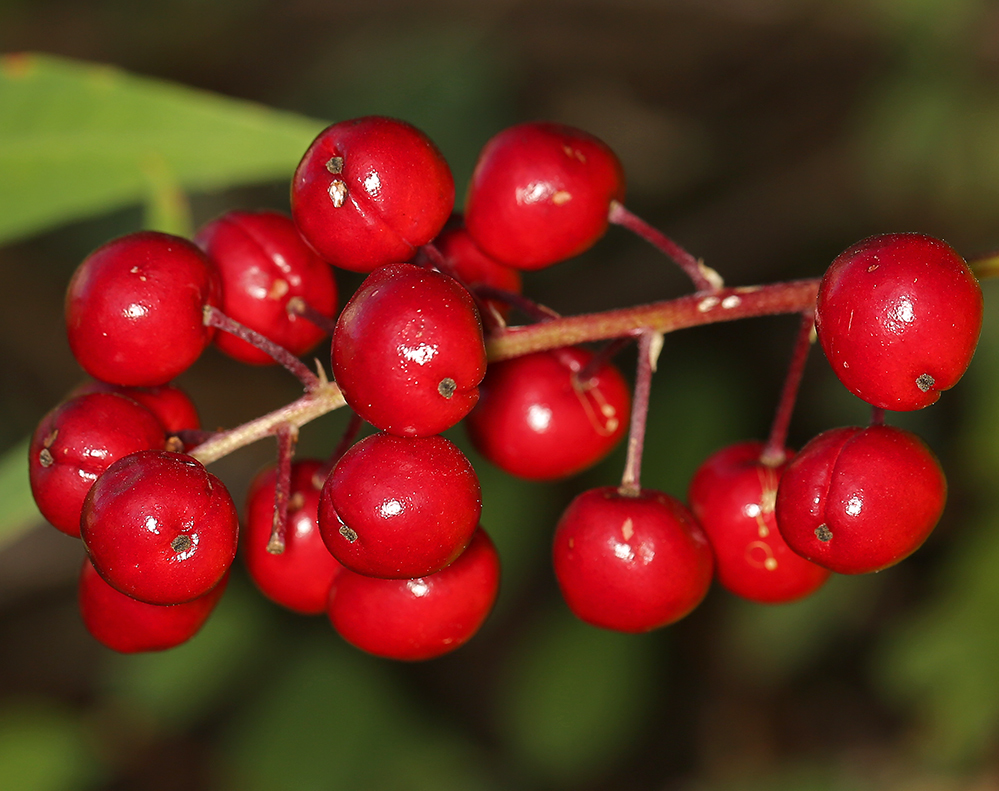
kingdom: Plantae
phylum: Tracheophyta
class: Magnoliopsida
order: Ranunculales
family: Ranunculaceae
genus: Actaea
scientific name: Actaea rubra
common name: Red baneberry
